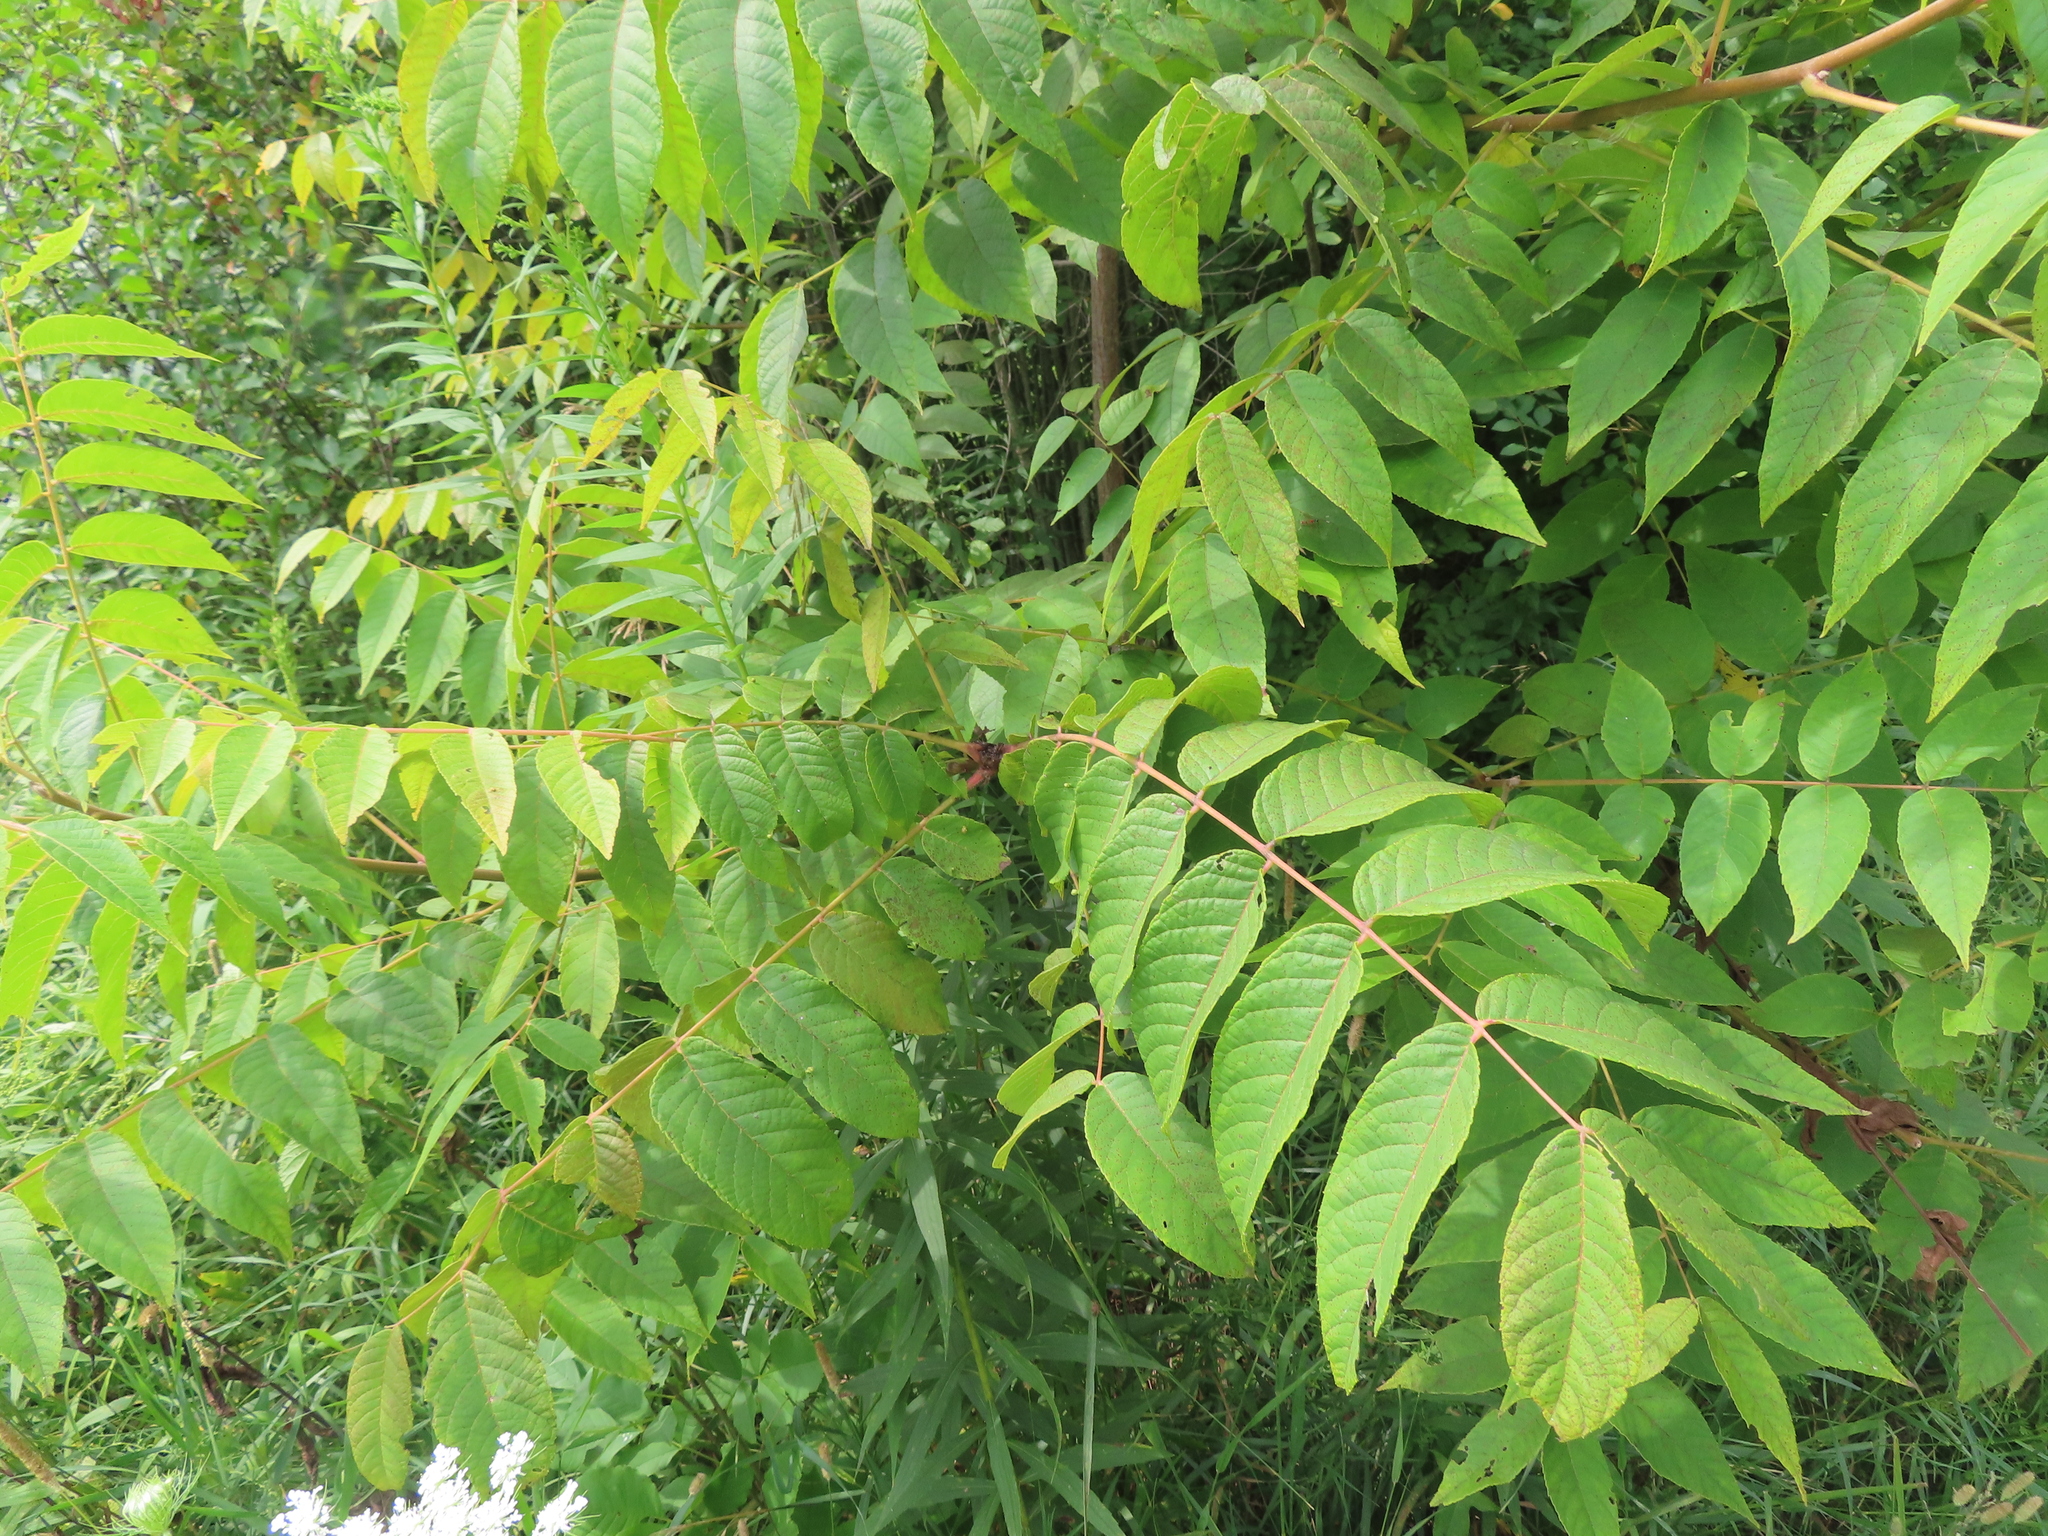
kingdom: Plantae
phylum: Tracheophyta
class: Magnoliopsida
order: Fagales
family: Juglandaceae
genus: Juglans
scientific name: Juglans nigra
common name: Black walnut
